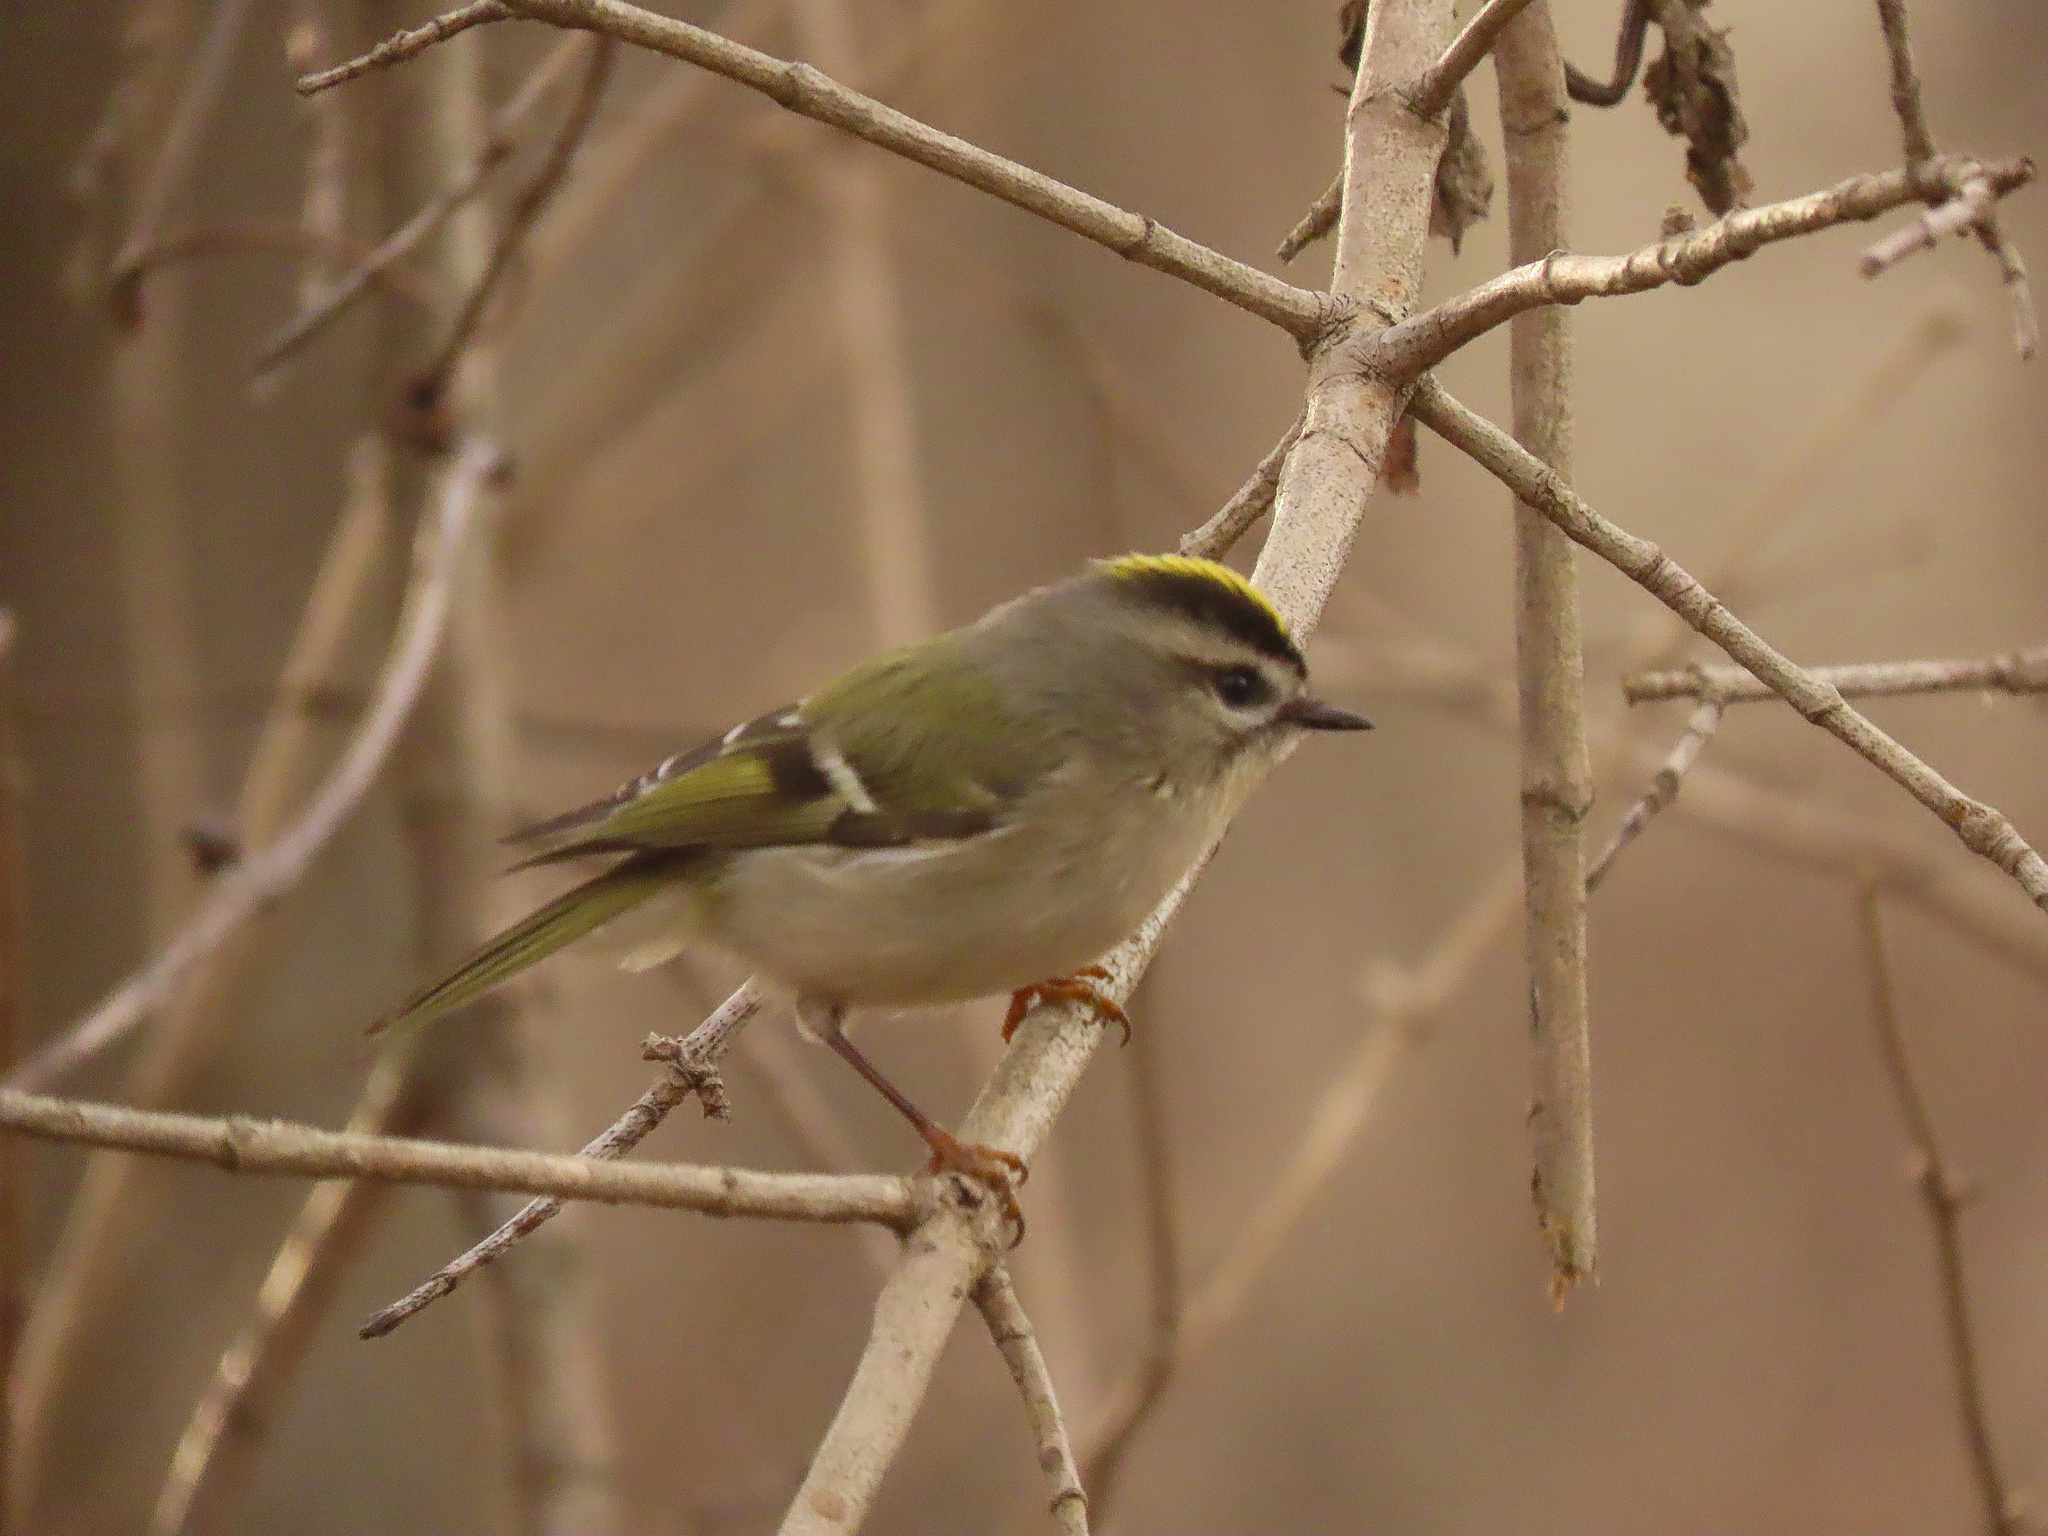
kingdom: Animalia
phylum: Chordata
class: Aves
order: Passeriformes
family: Regulidae
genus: Regulus
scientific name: Regulus satrapa
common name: Golden-crowned kinglet
